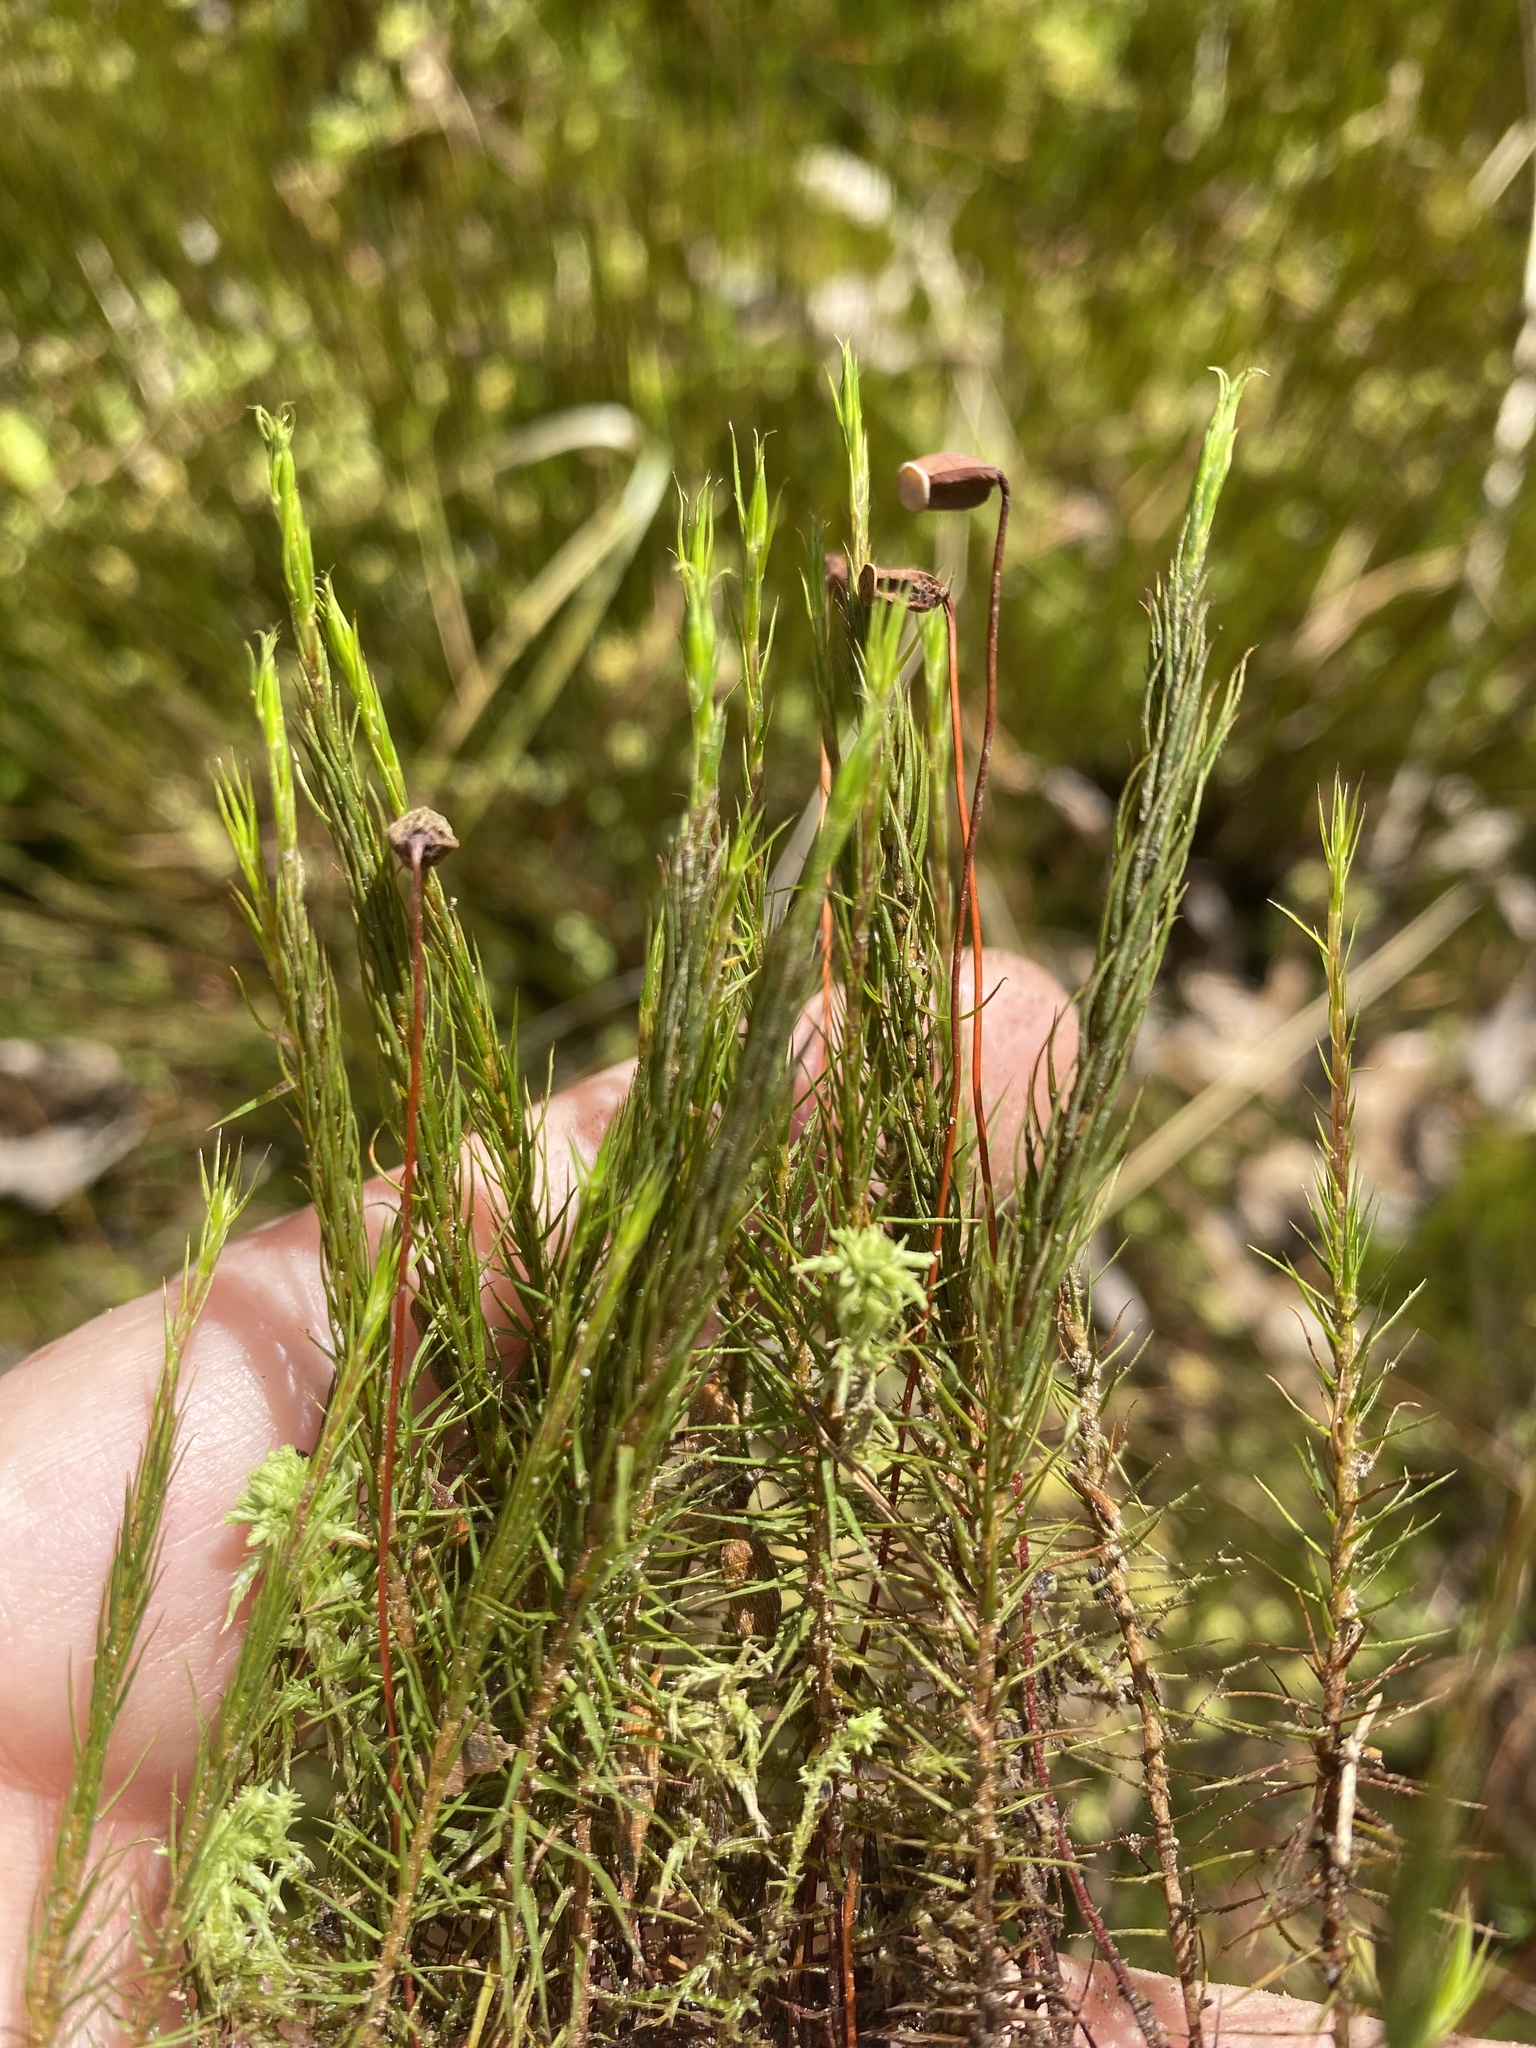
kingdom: Plantae
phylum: Bryophyta
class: Polytrichopsida
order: Polytrichales
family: Polytrichaceae
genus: Polytrichum
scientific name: Polytrichum commune
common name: Common haircap
